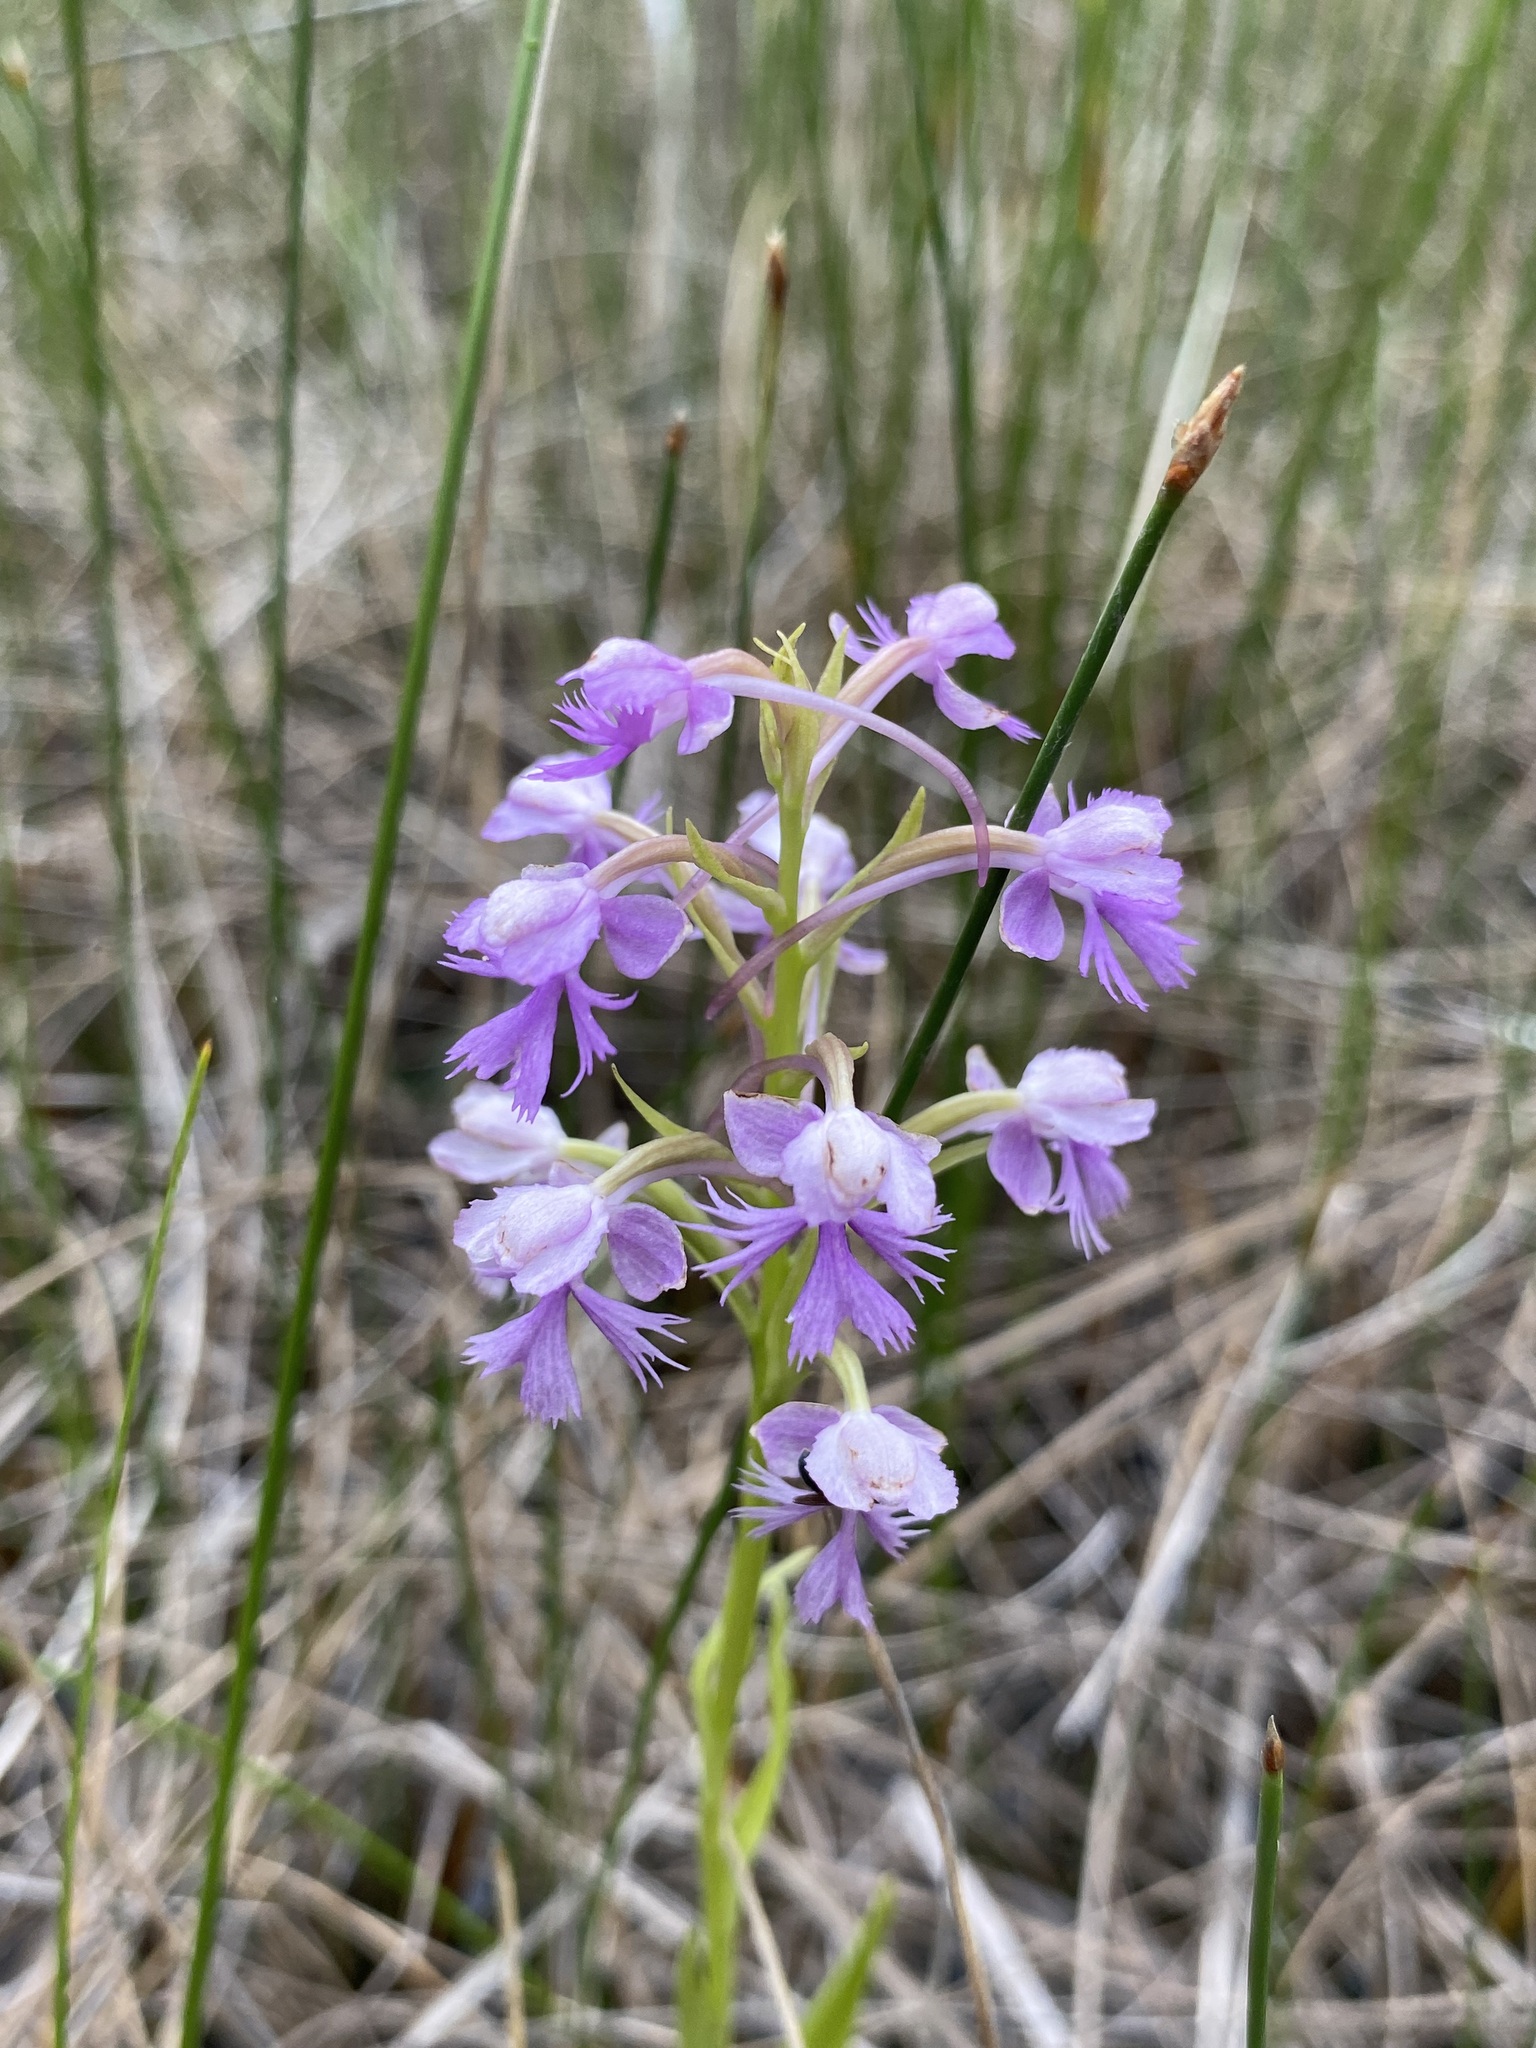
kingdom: Plantae
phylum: Tracheophyta
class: Liliopsida
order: Asparagales
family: Orchidaceae
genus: Platanthera
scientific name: Platanthera psycodes
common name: Lesser purple fringed orchid
